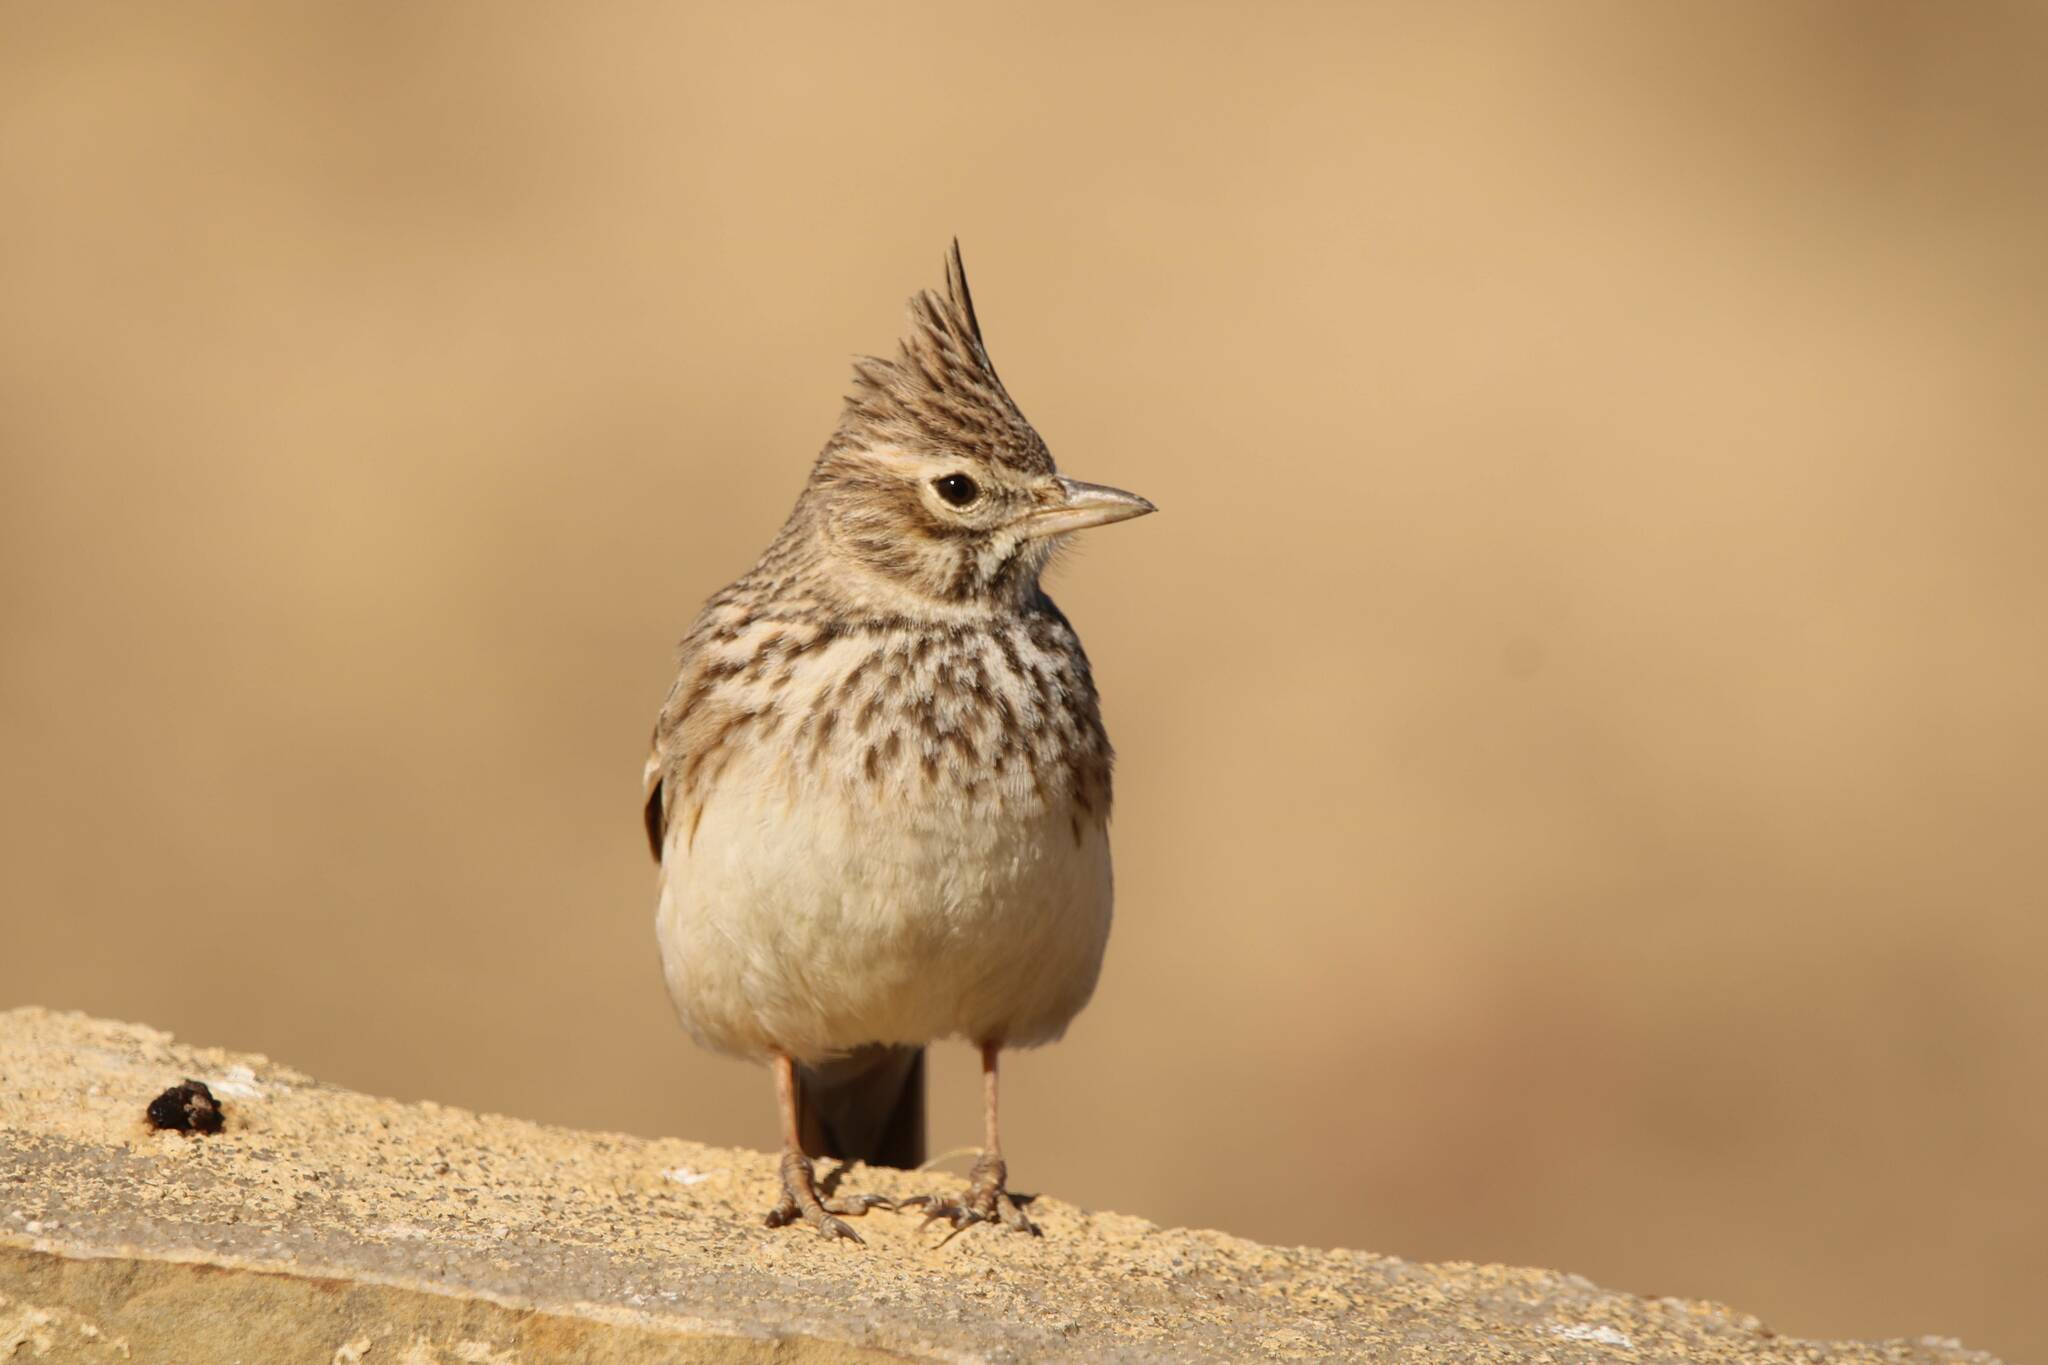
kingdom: Animalia
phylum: Chordata
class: Aves
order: Passeriformes
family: Alaudidae
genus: Galerida
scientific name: Galerida theklae
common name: Thekla lark
